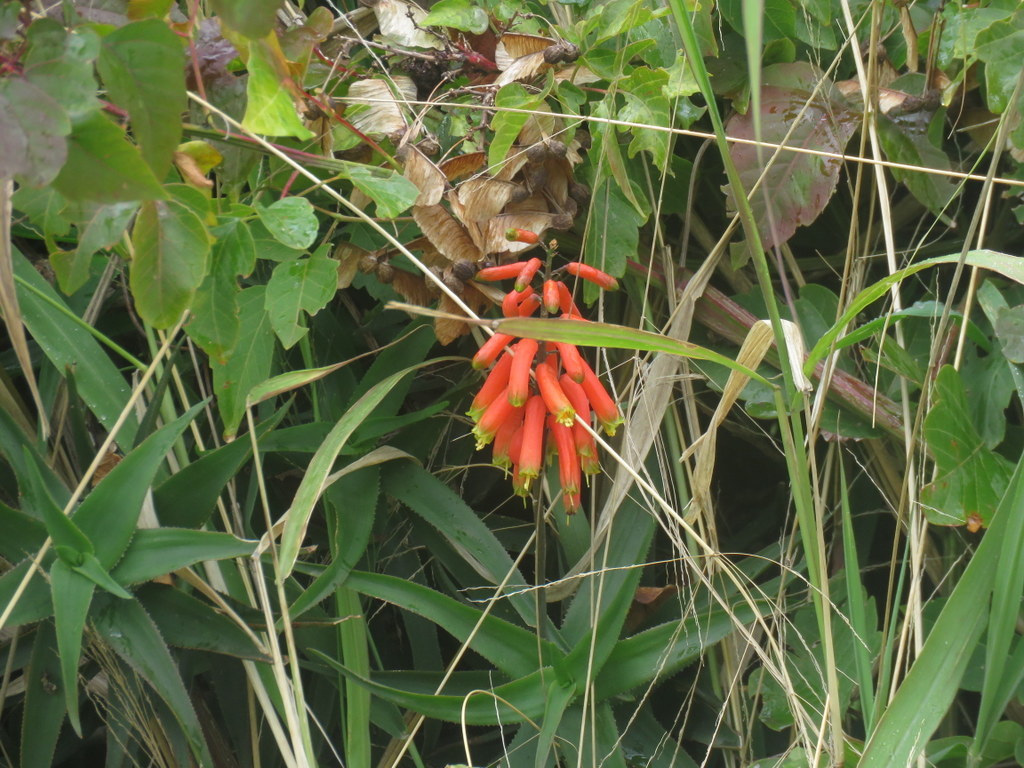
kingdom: Plantae
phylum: Tracheophyta
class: Liliopsida
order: Asparagales
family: Asphodelaceae
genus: Aloiampelos
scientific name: Aloiampelos ciliaris
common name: Climbing aloe
